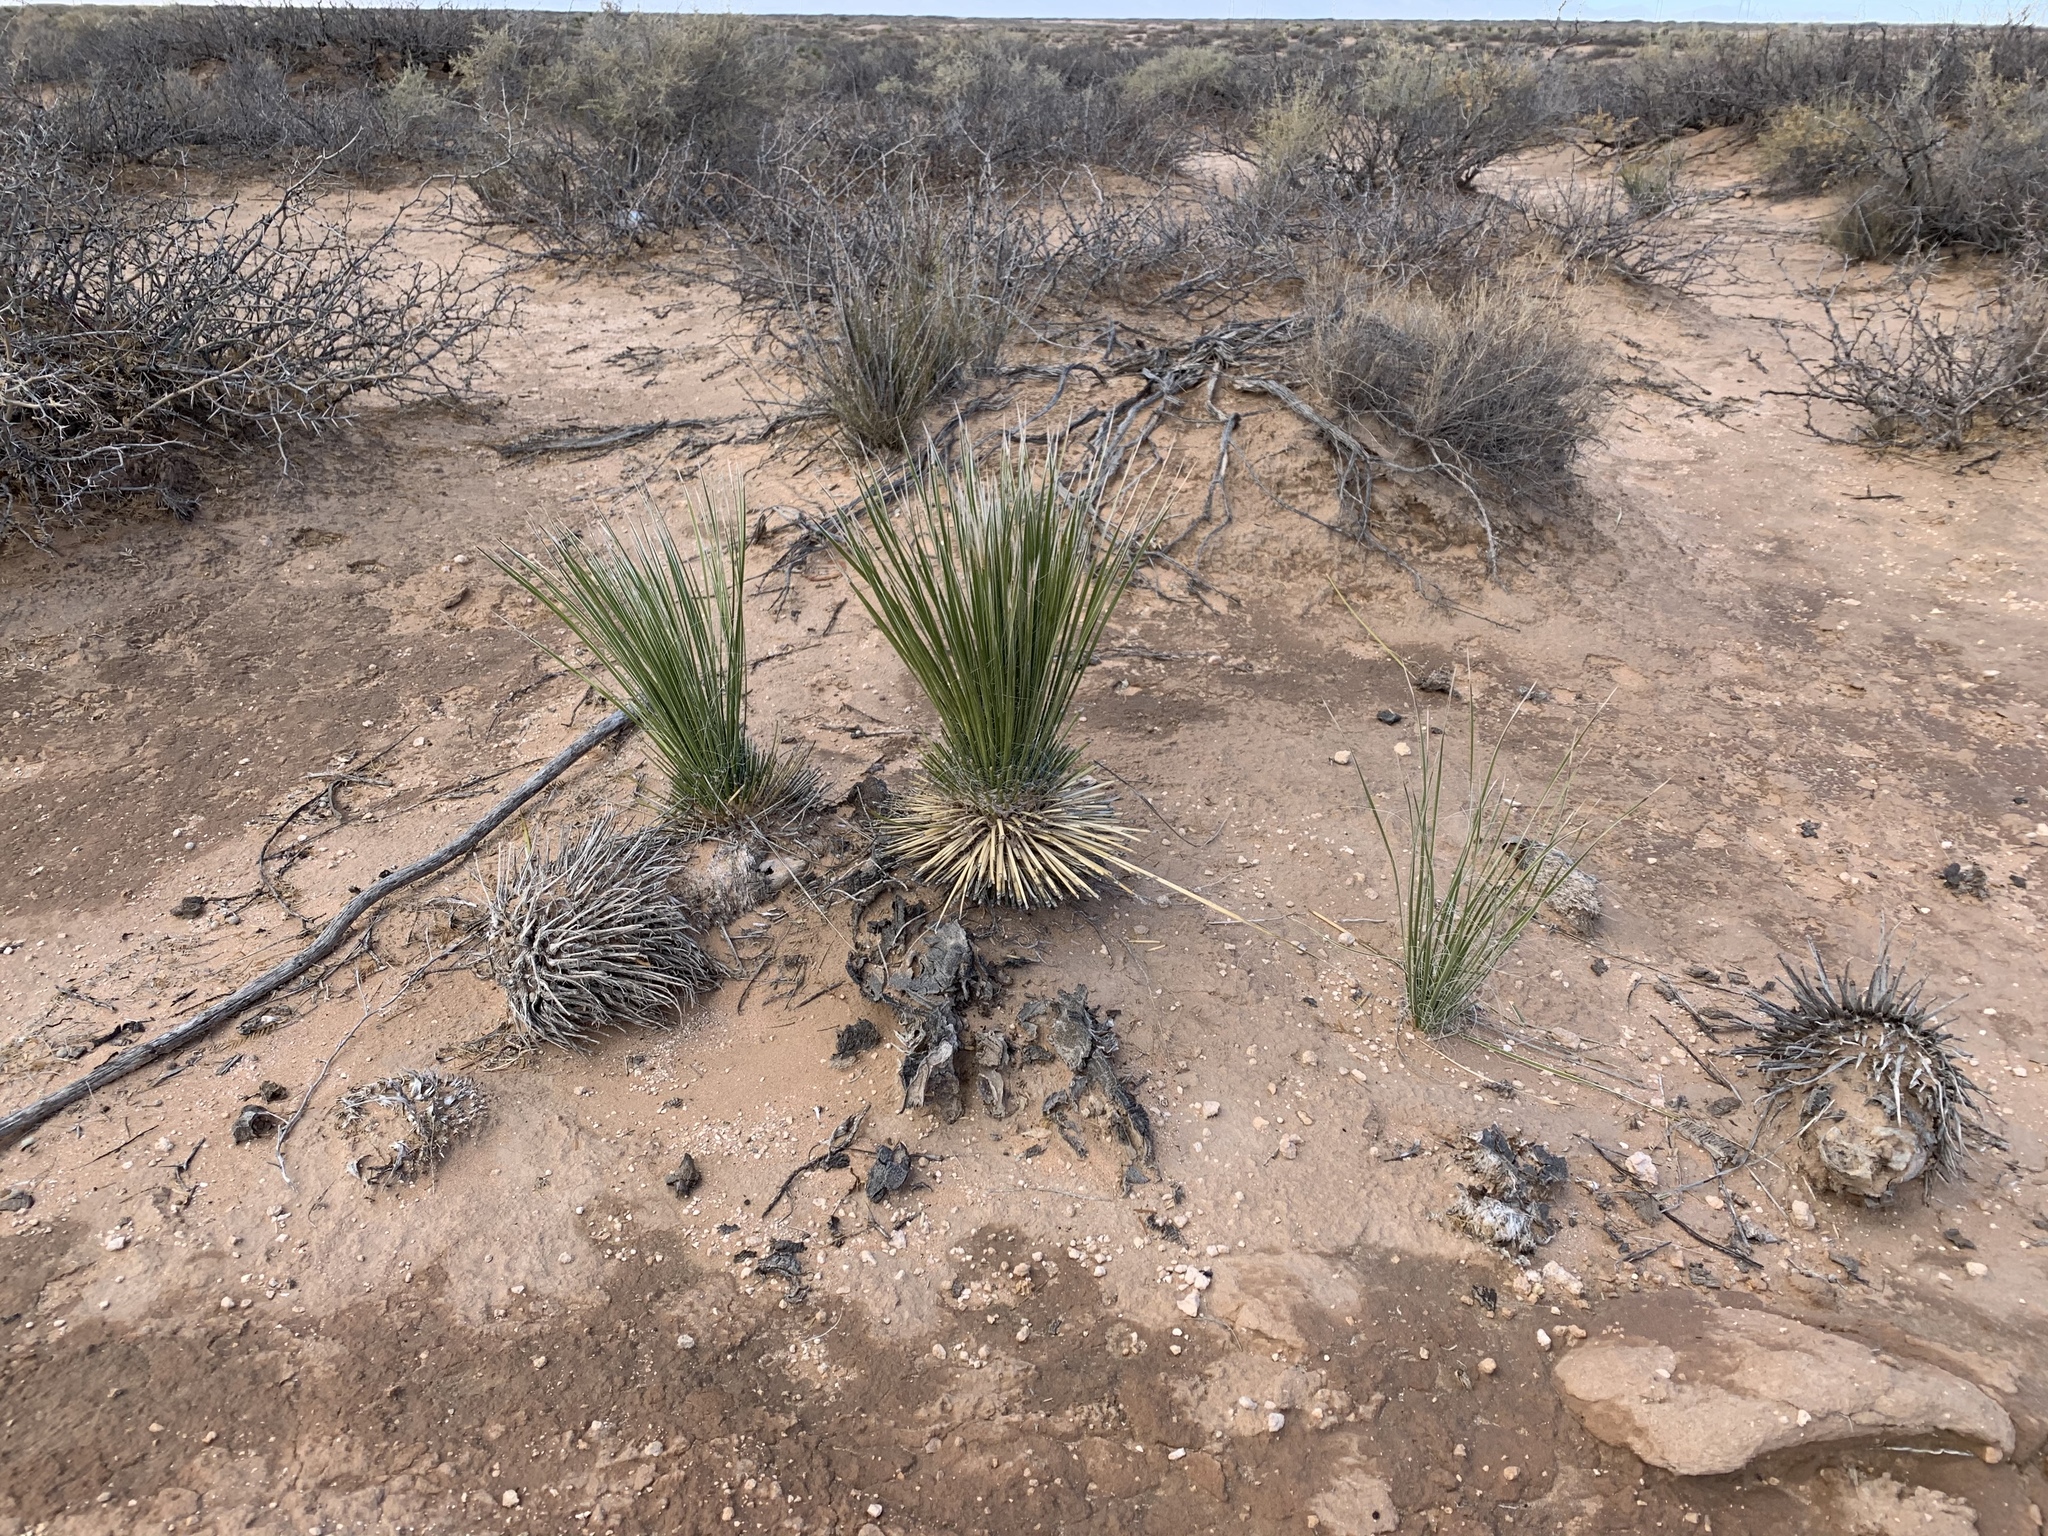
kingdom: Plantae
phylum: Tracheophyta
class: Liliopsida
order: Asparagales
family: Asparagaceae
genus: Yucca
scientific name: Yucca elata
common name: Palmella
